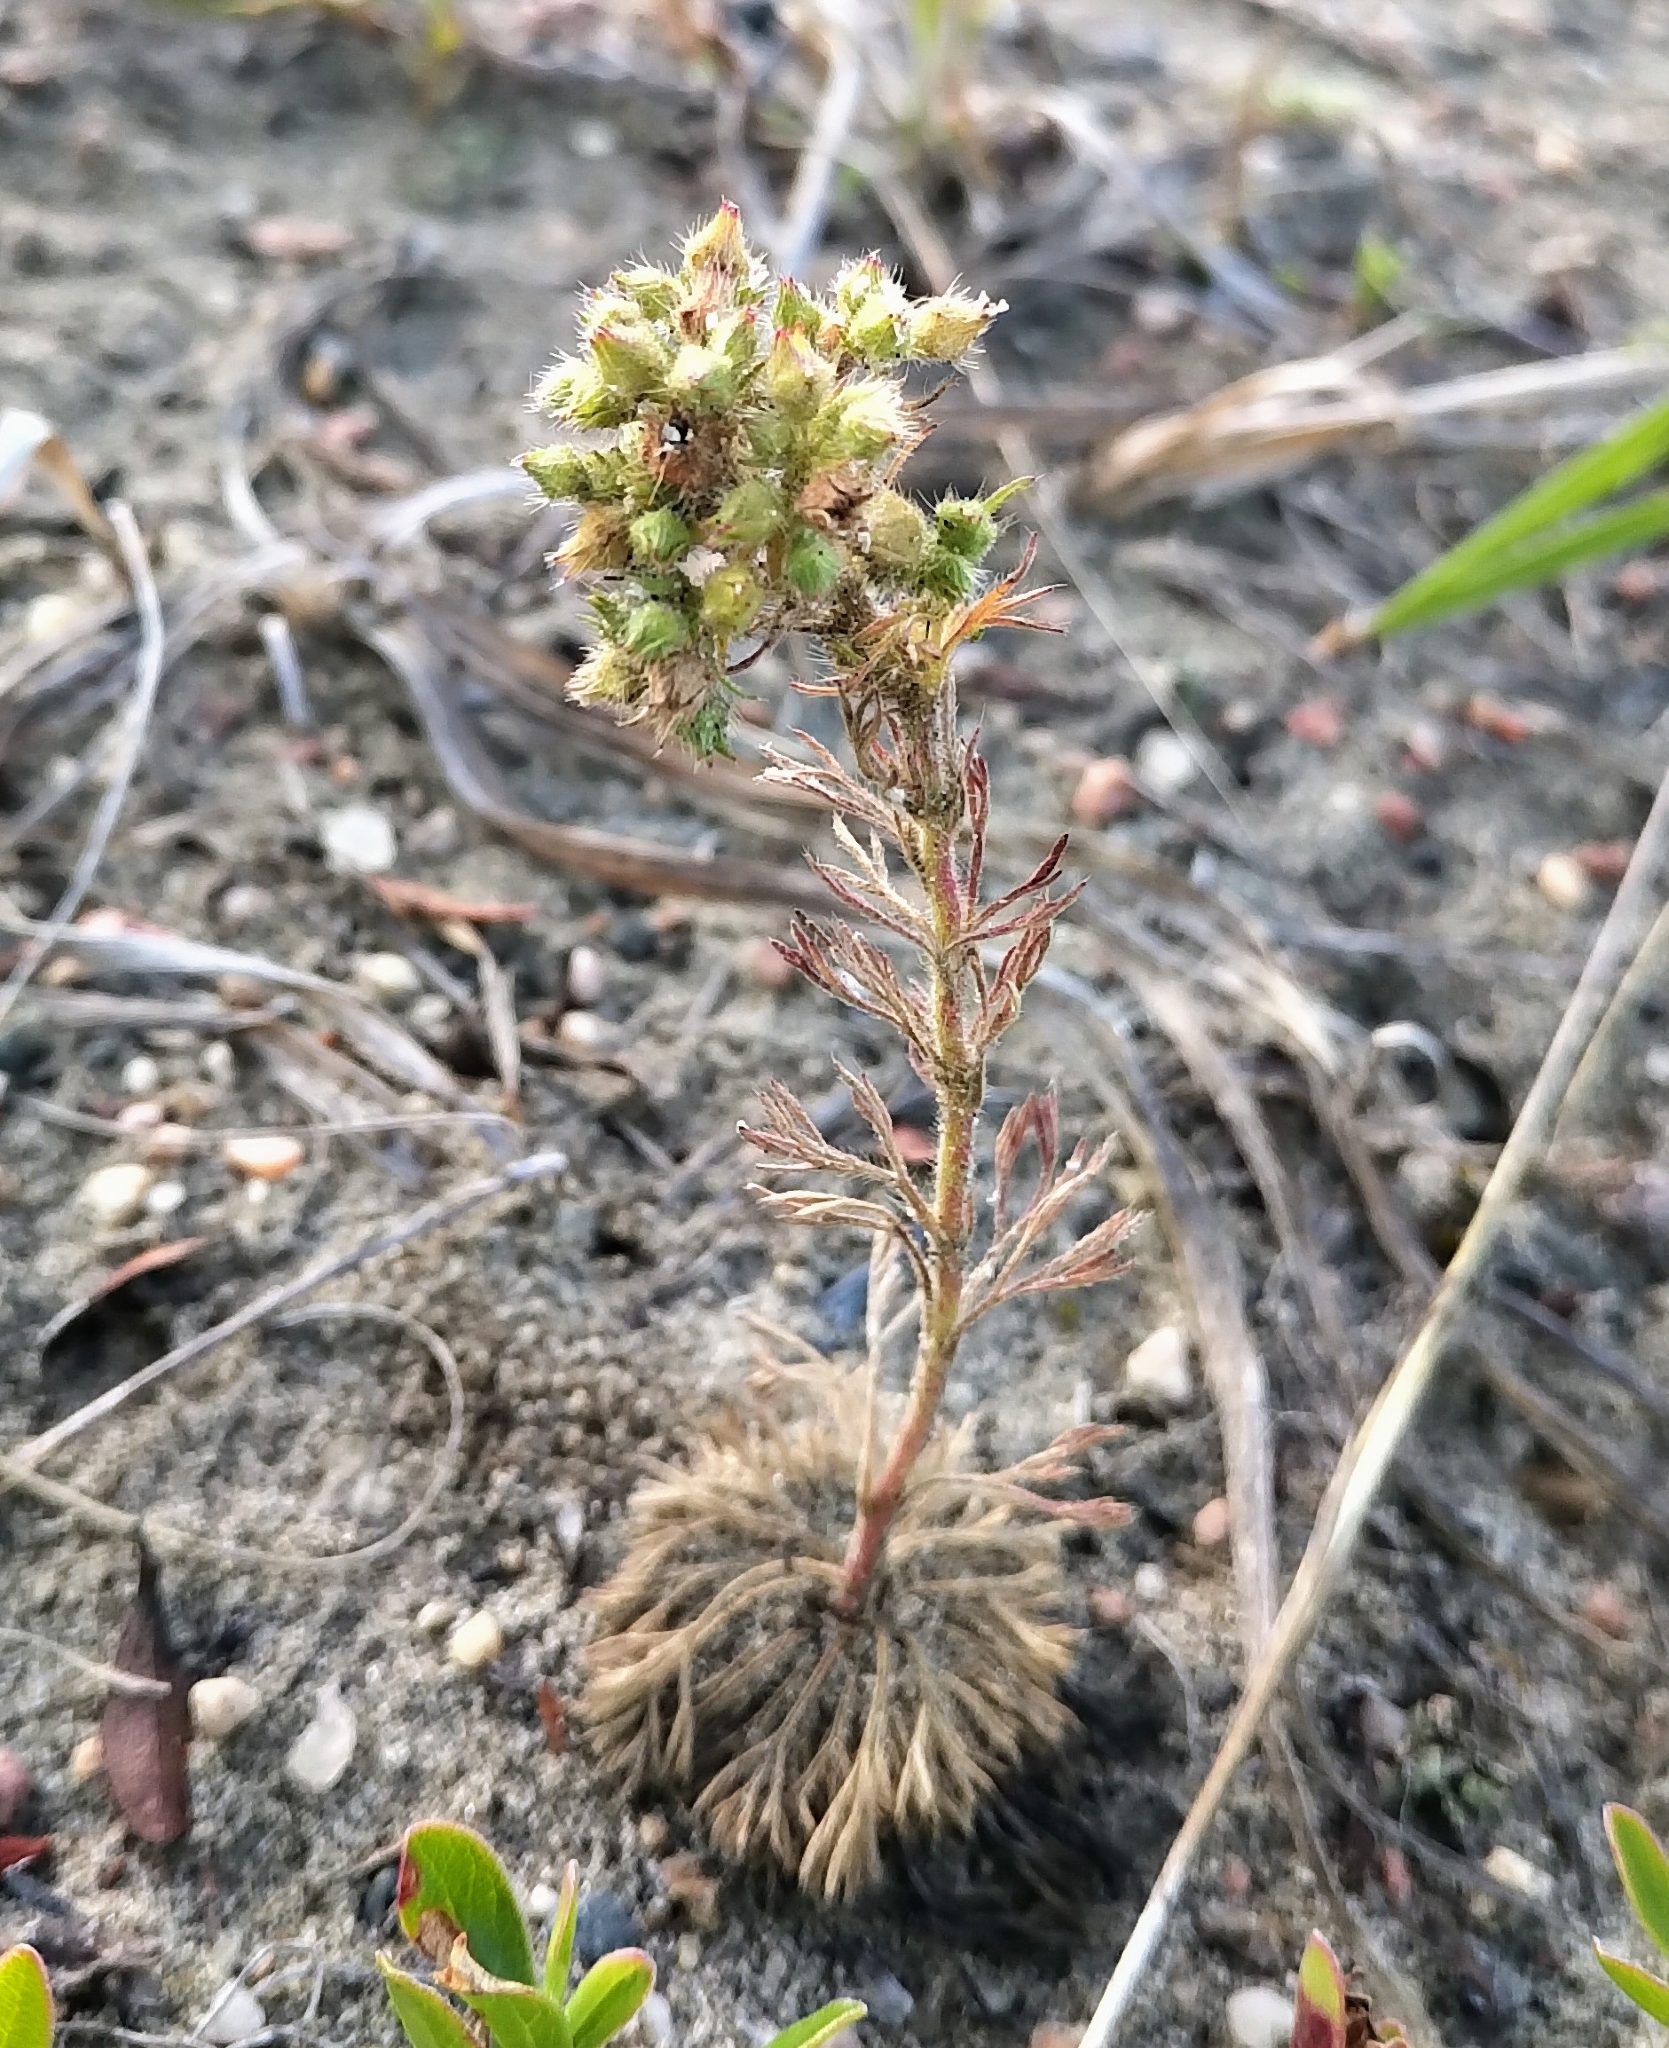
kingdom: Plantae
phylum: Tracheophyta
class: Magnoliopsida
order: Rosales
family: Rosaceae
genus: Chamaerhodos
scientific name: Chamaerhodos erecta
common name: American chamaerhodos
